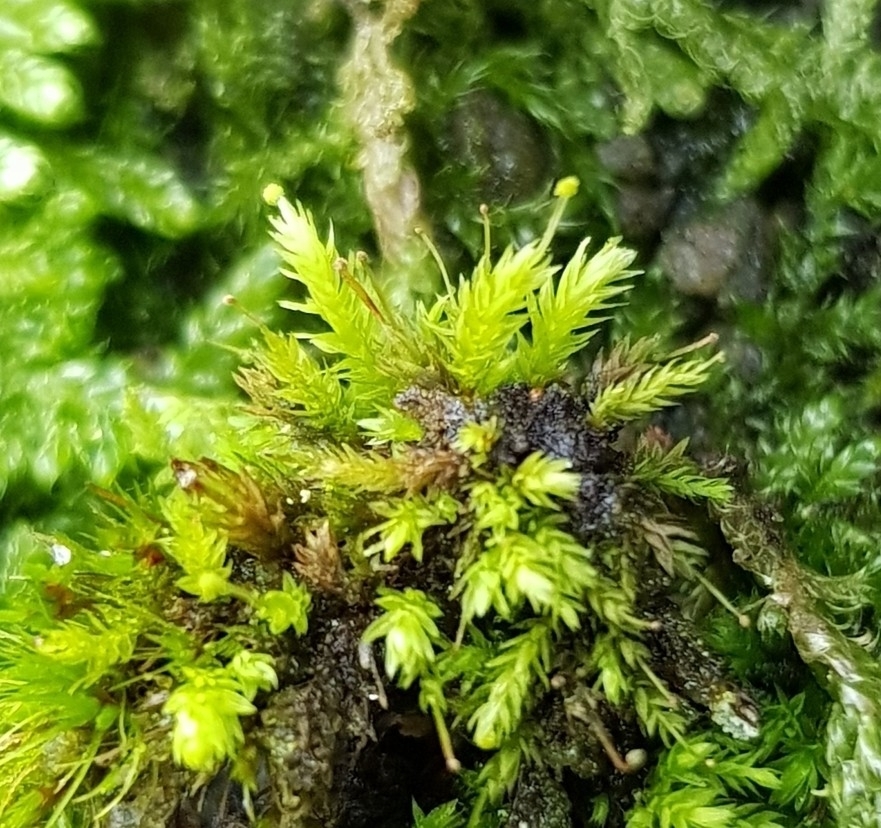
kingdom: Plantae
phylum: Bryophyta
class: Bryopsida
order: Aulacomniales
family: Aulacomniaceae
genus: Aulacomnium
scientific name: Aulacomnium androgynum
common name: Little groove moss
